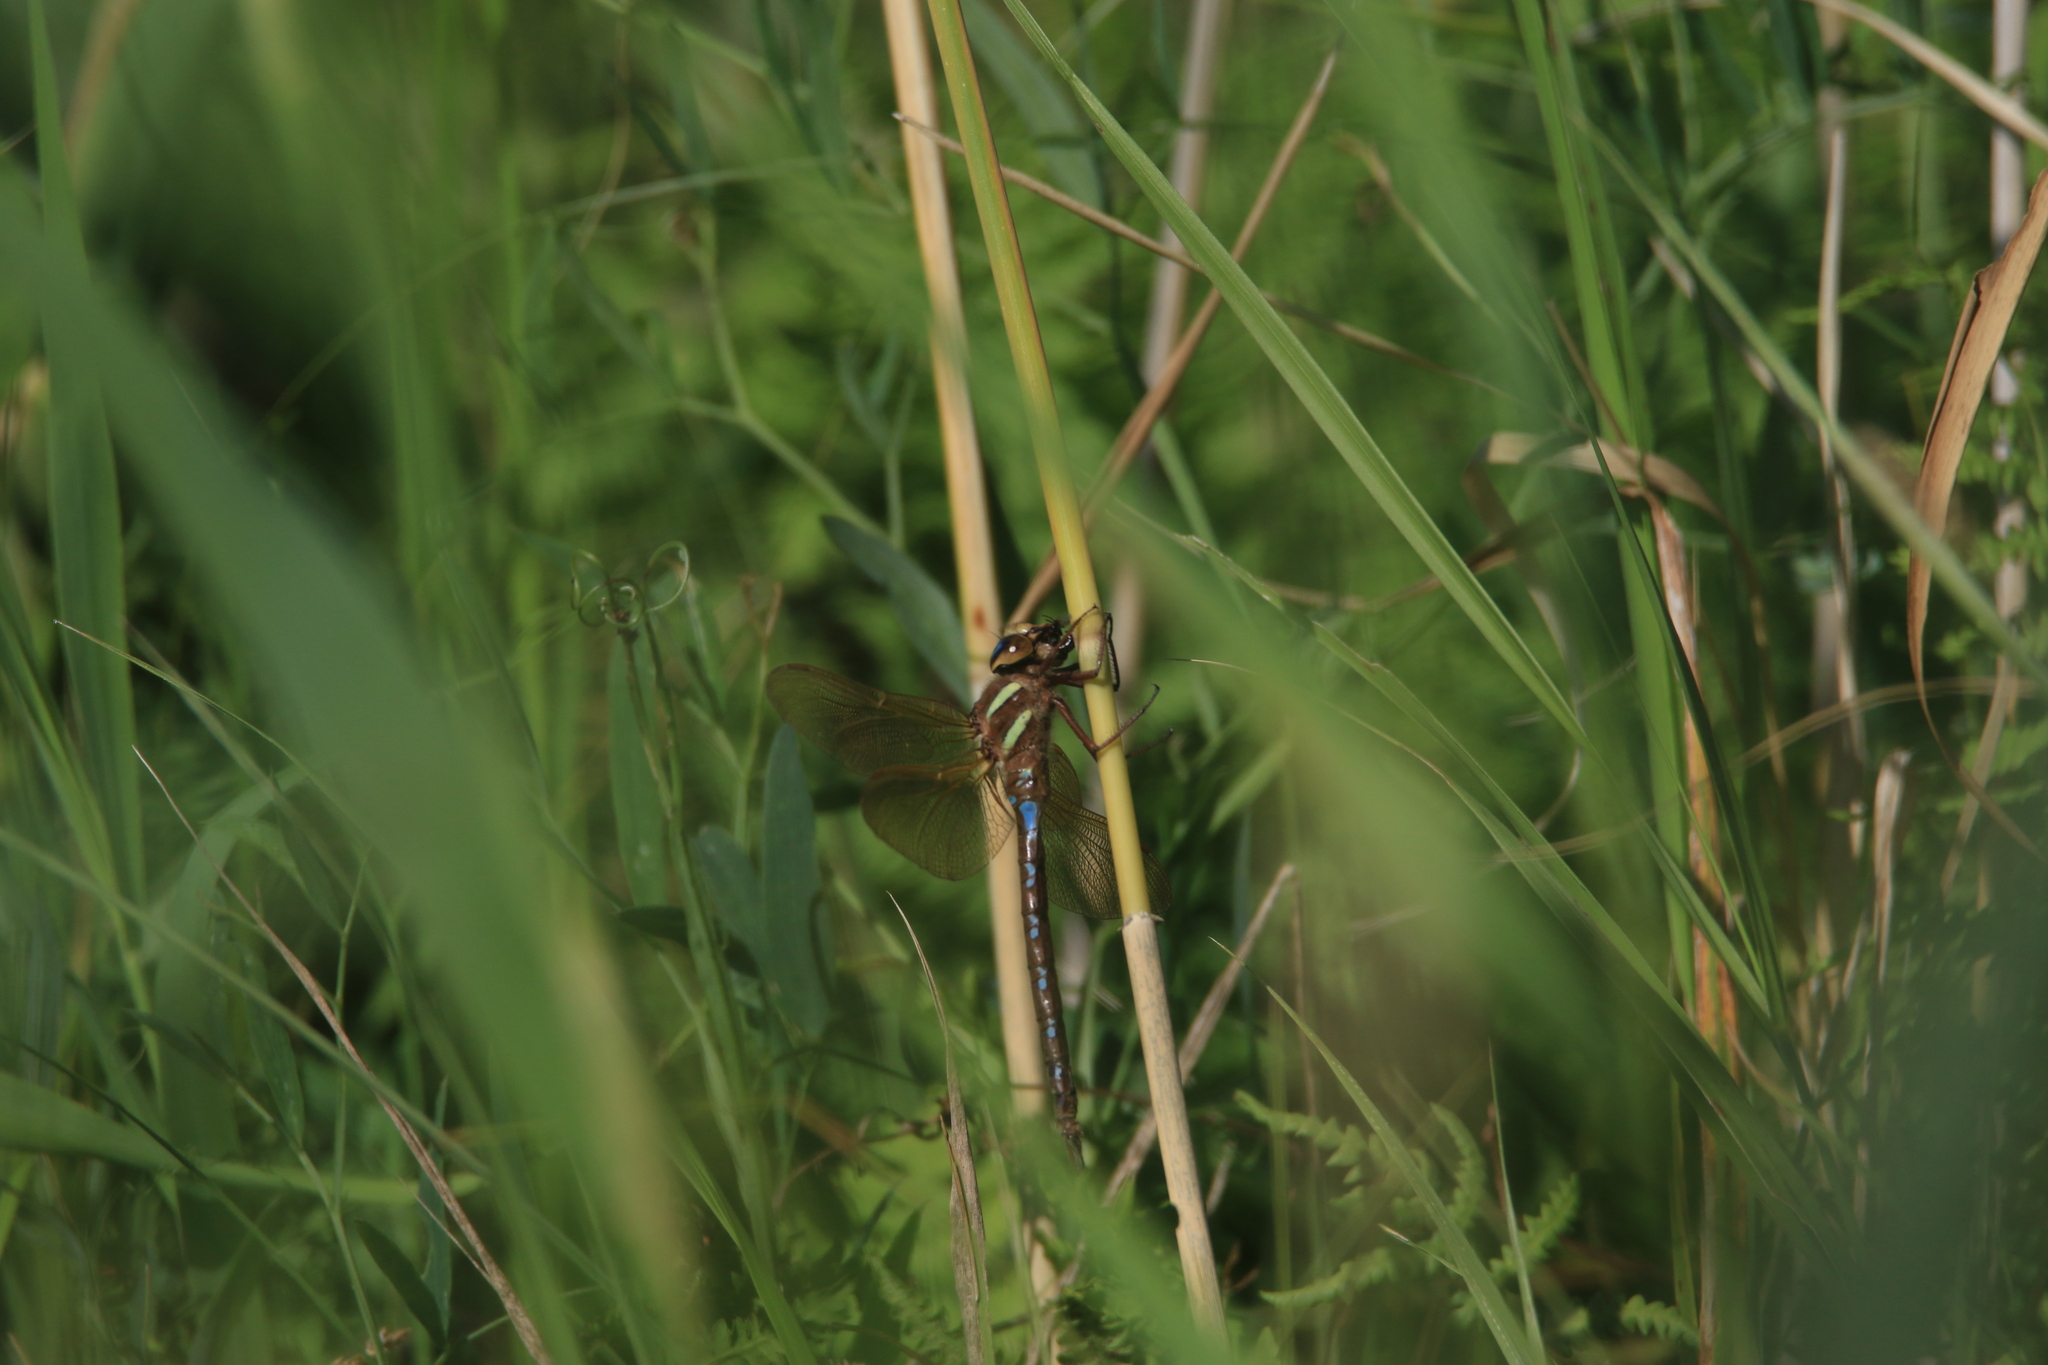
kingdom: Animalia
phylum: Arthropoda
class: Insecta
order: Odonata
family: Aeshnidae
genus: Aeshna
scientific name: Aeshna grandis
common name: Brown hawker
